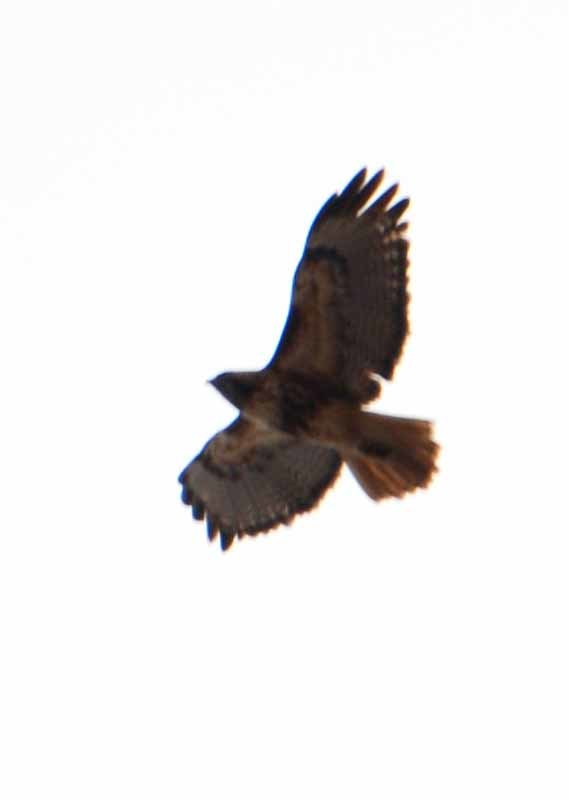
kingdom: Animalia
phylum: Chordata
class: Aves
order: Accipitriformes
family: Accipitridae
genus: Buteo
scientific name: Buteo jamaicensis
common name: Red-tailed hawk
